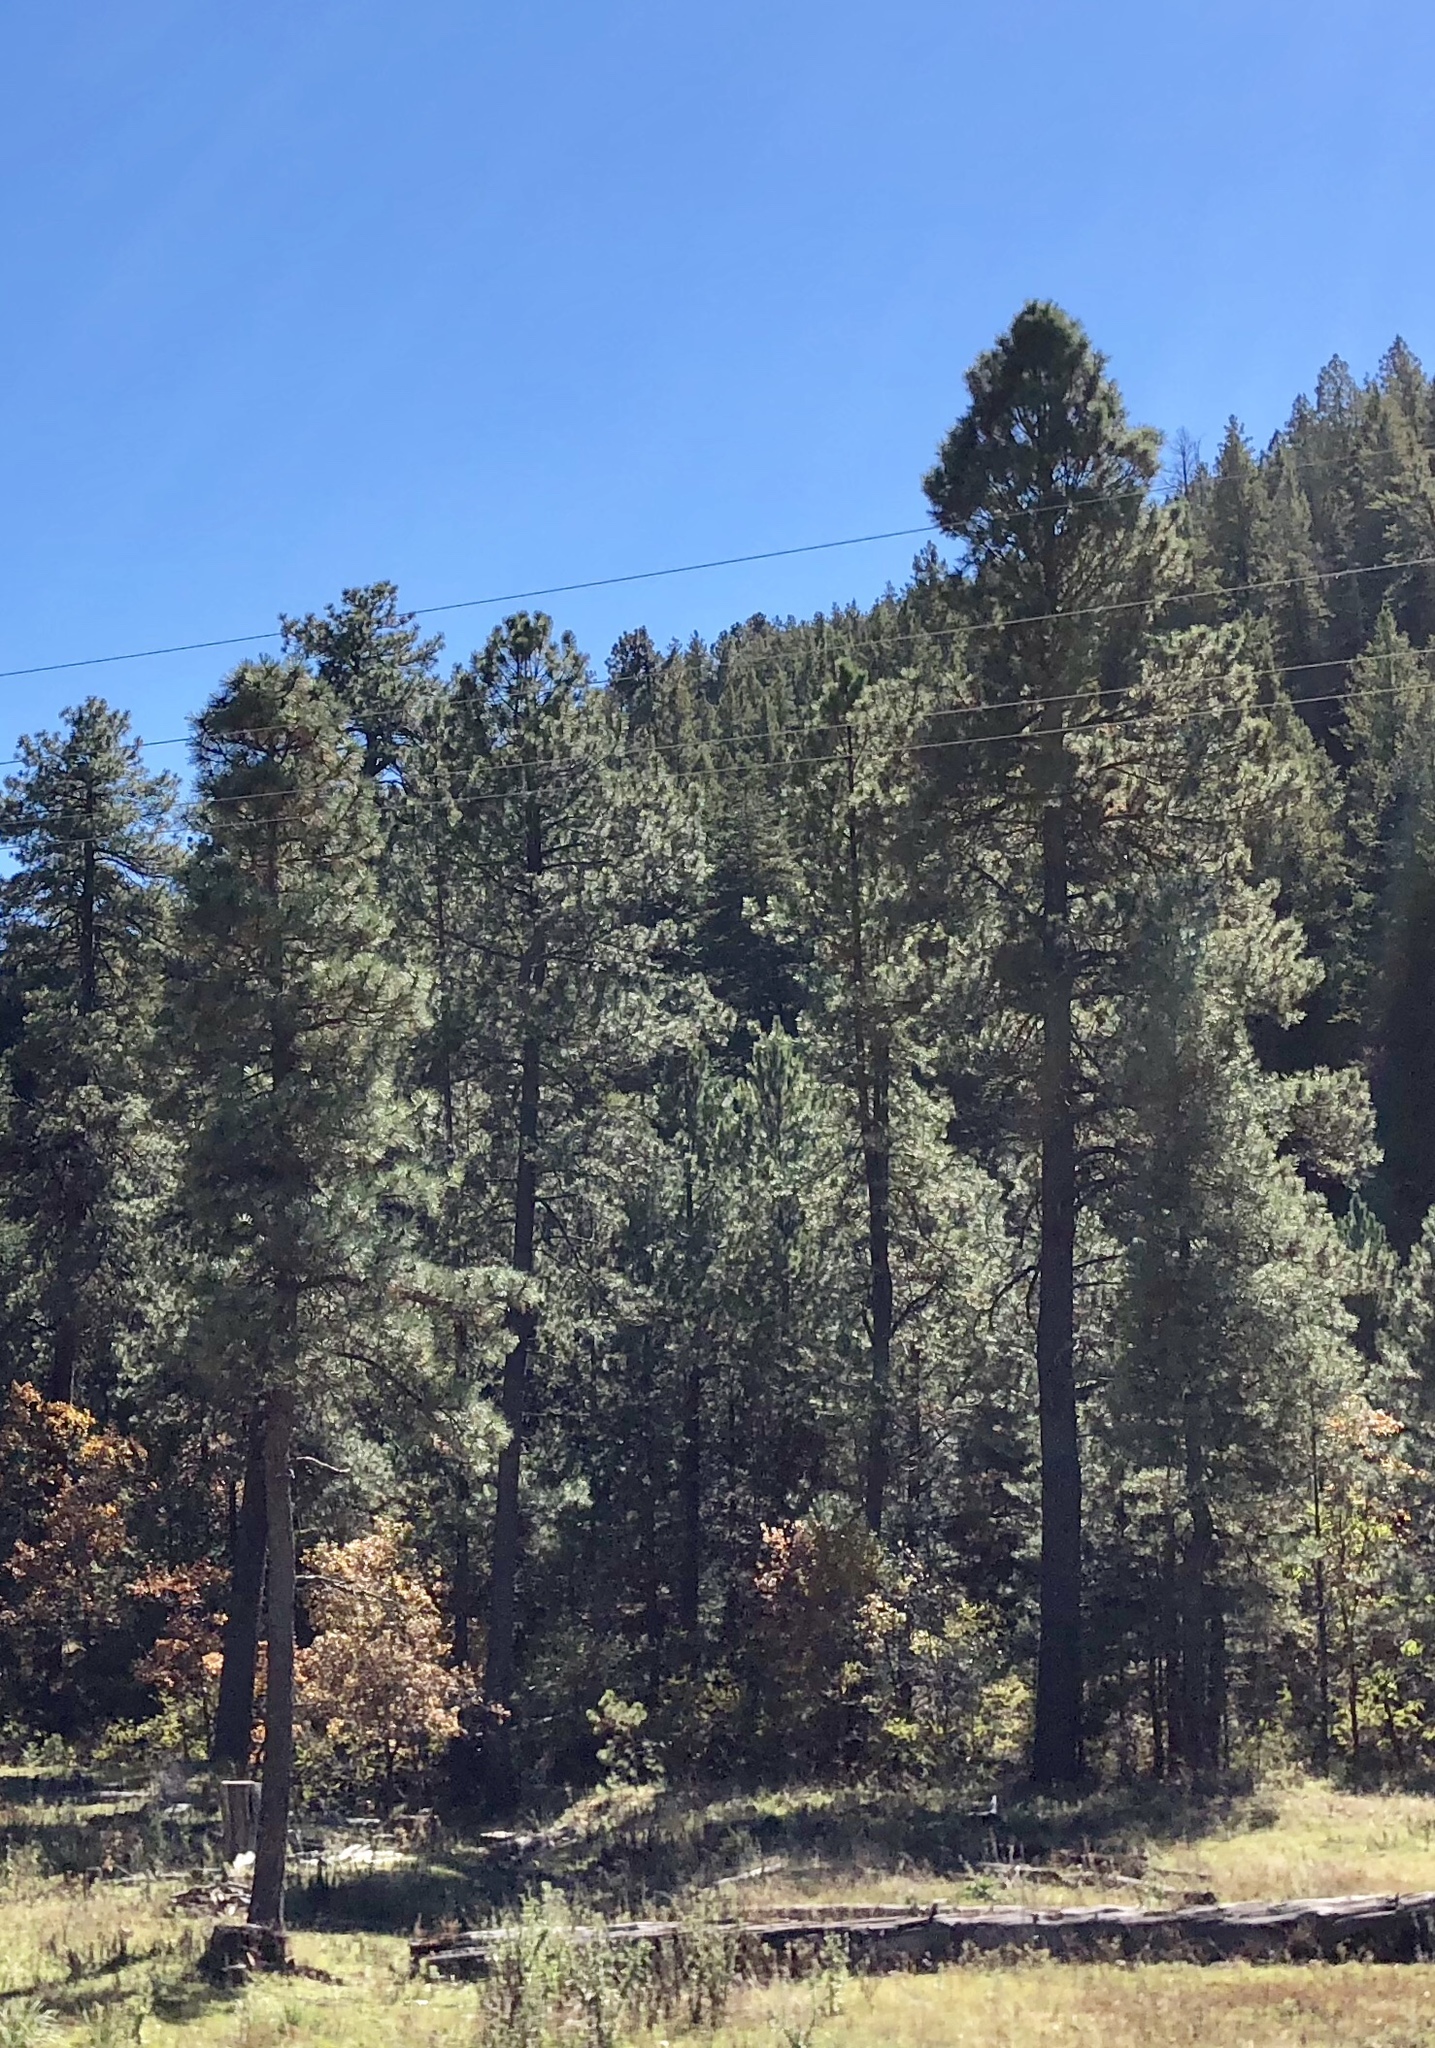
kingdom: Plantae
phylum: Tracheophyta
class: Pinopsida
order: Pinales
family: Pinaceae
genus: Pinus
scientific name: Pinus ponderosa
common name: Western yellow-pine
